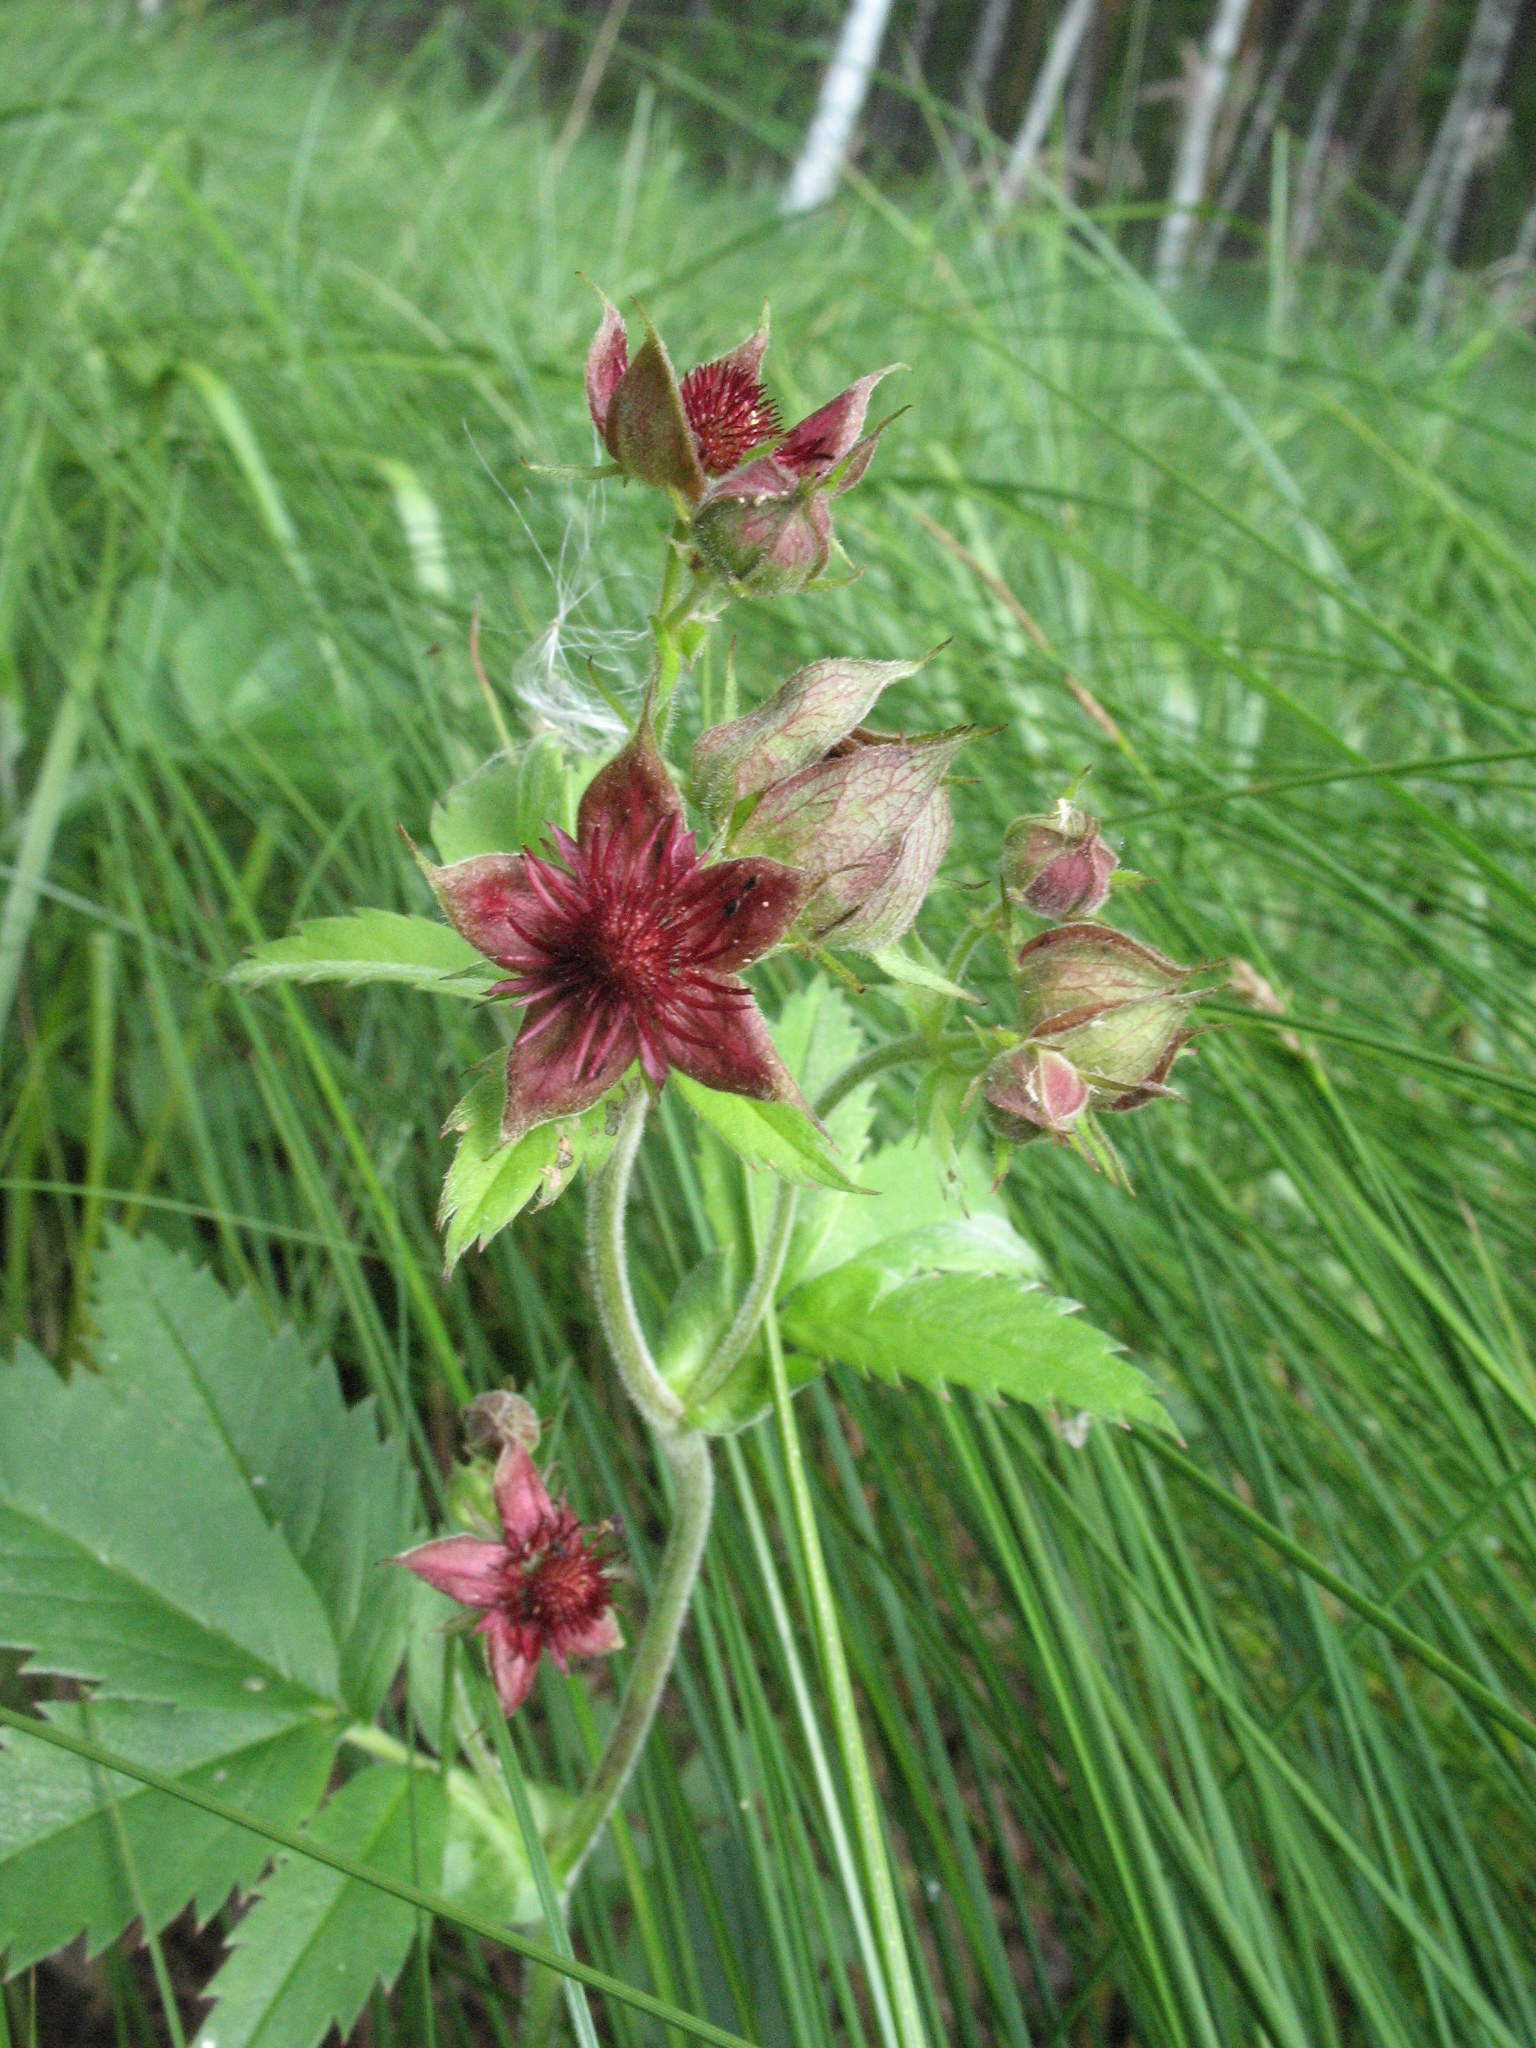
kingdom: Plantae
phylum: Tracheophyta
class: Magnoliopsida
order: Rosales
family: Rosaceae
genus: Comarum
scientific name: Comarum palustre
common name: Marsh cinquefoil
